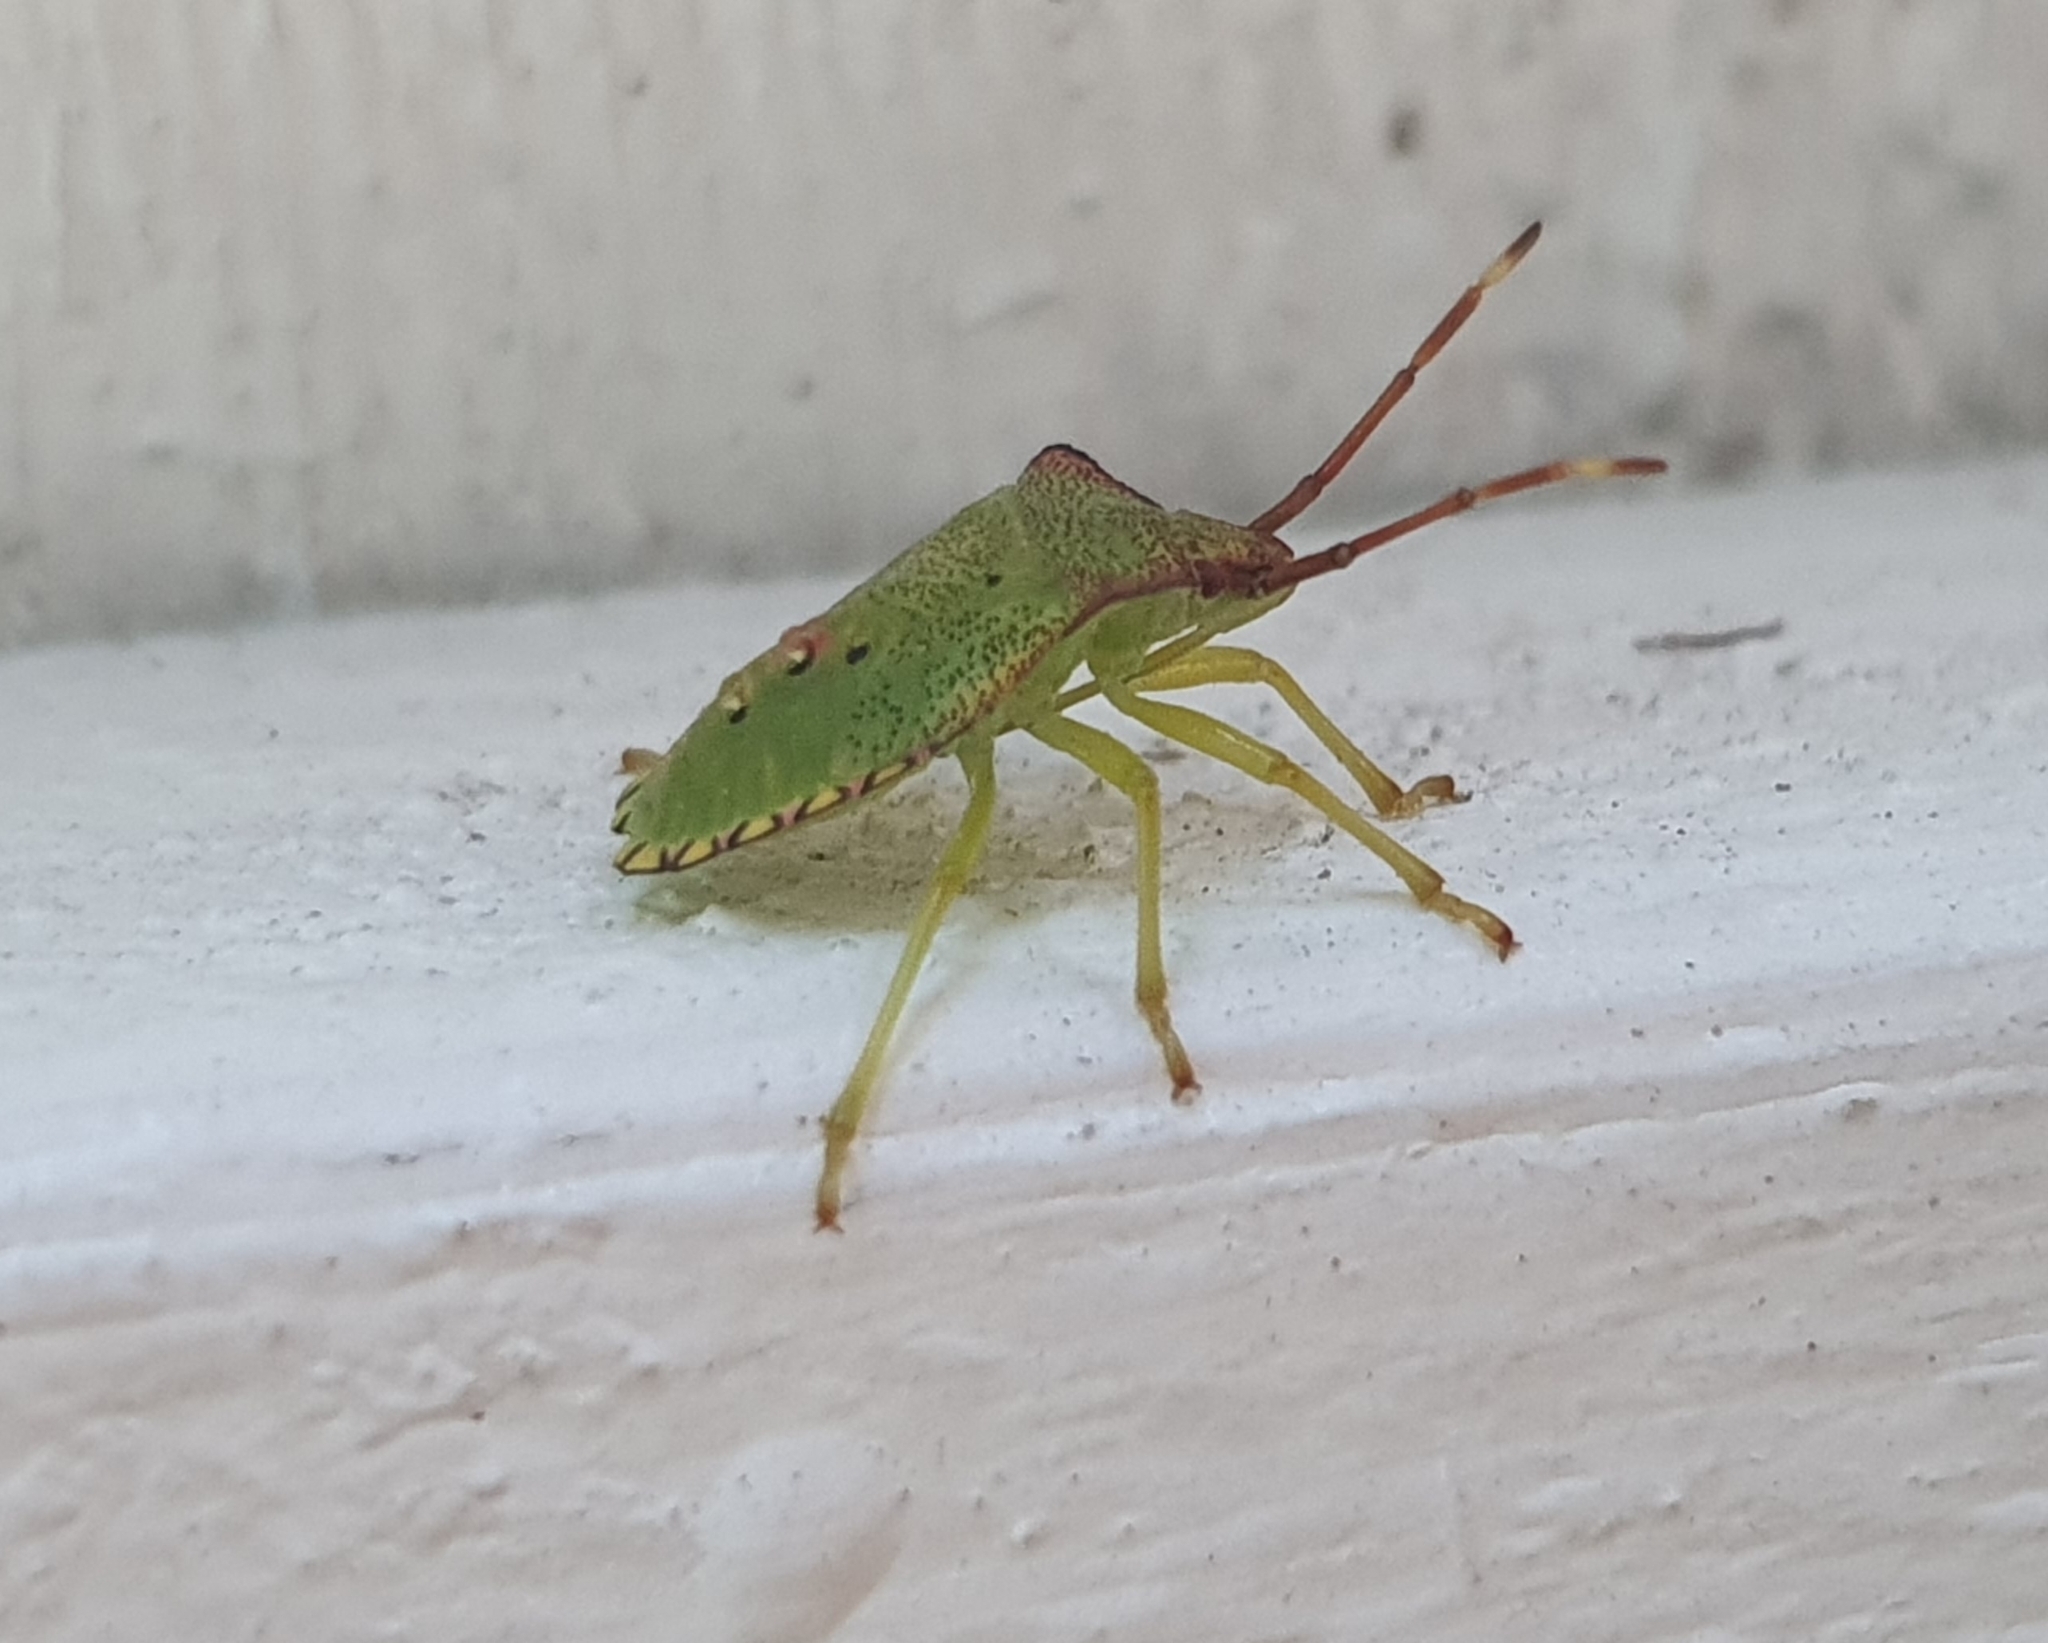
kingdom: Animalia
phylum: Arthropoda
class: Insecta
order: Hemiptera
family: Acanthosomatidae
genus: Acanthosoma
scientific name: Acanthosoma haemorrhoidale
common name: Hawthorn shieldbug
